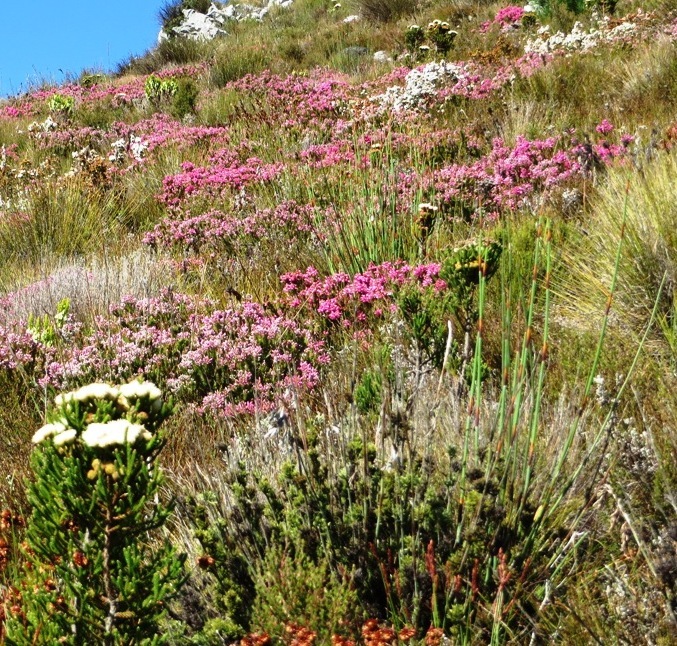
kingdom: Plantae
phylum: Tracheophyta
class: Magnoliopsida
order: Bruniales
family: Bruniaceae
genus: Brunia
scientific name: Brunia latebracteata
